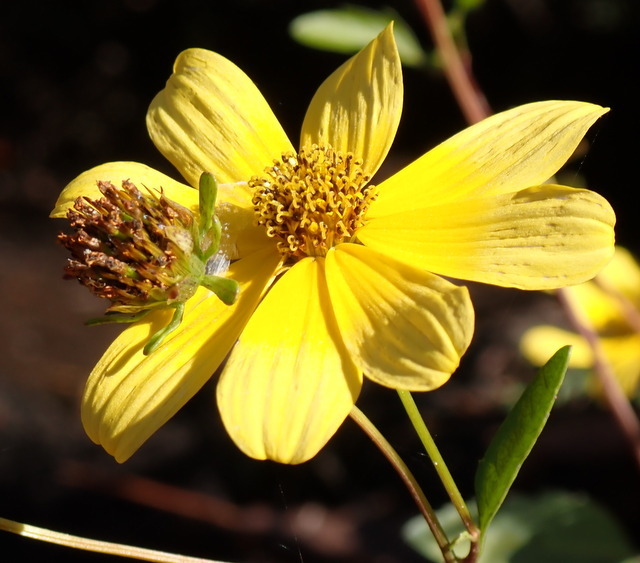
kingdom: Plantae
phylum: Tracheophyta
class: Magnoliopsida
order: Asterales
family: Asteraceae
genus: Bidens
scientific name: Bidens mitis
